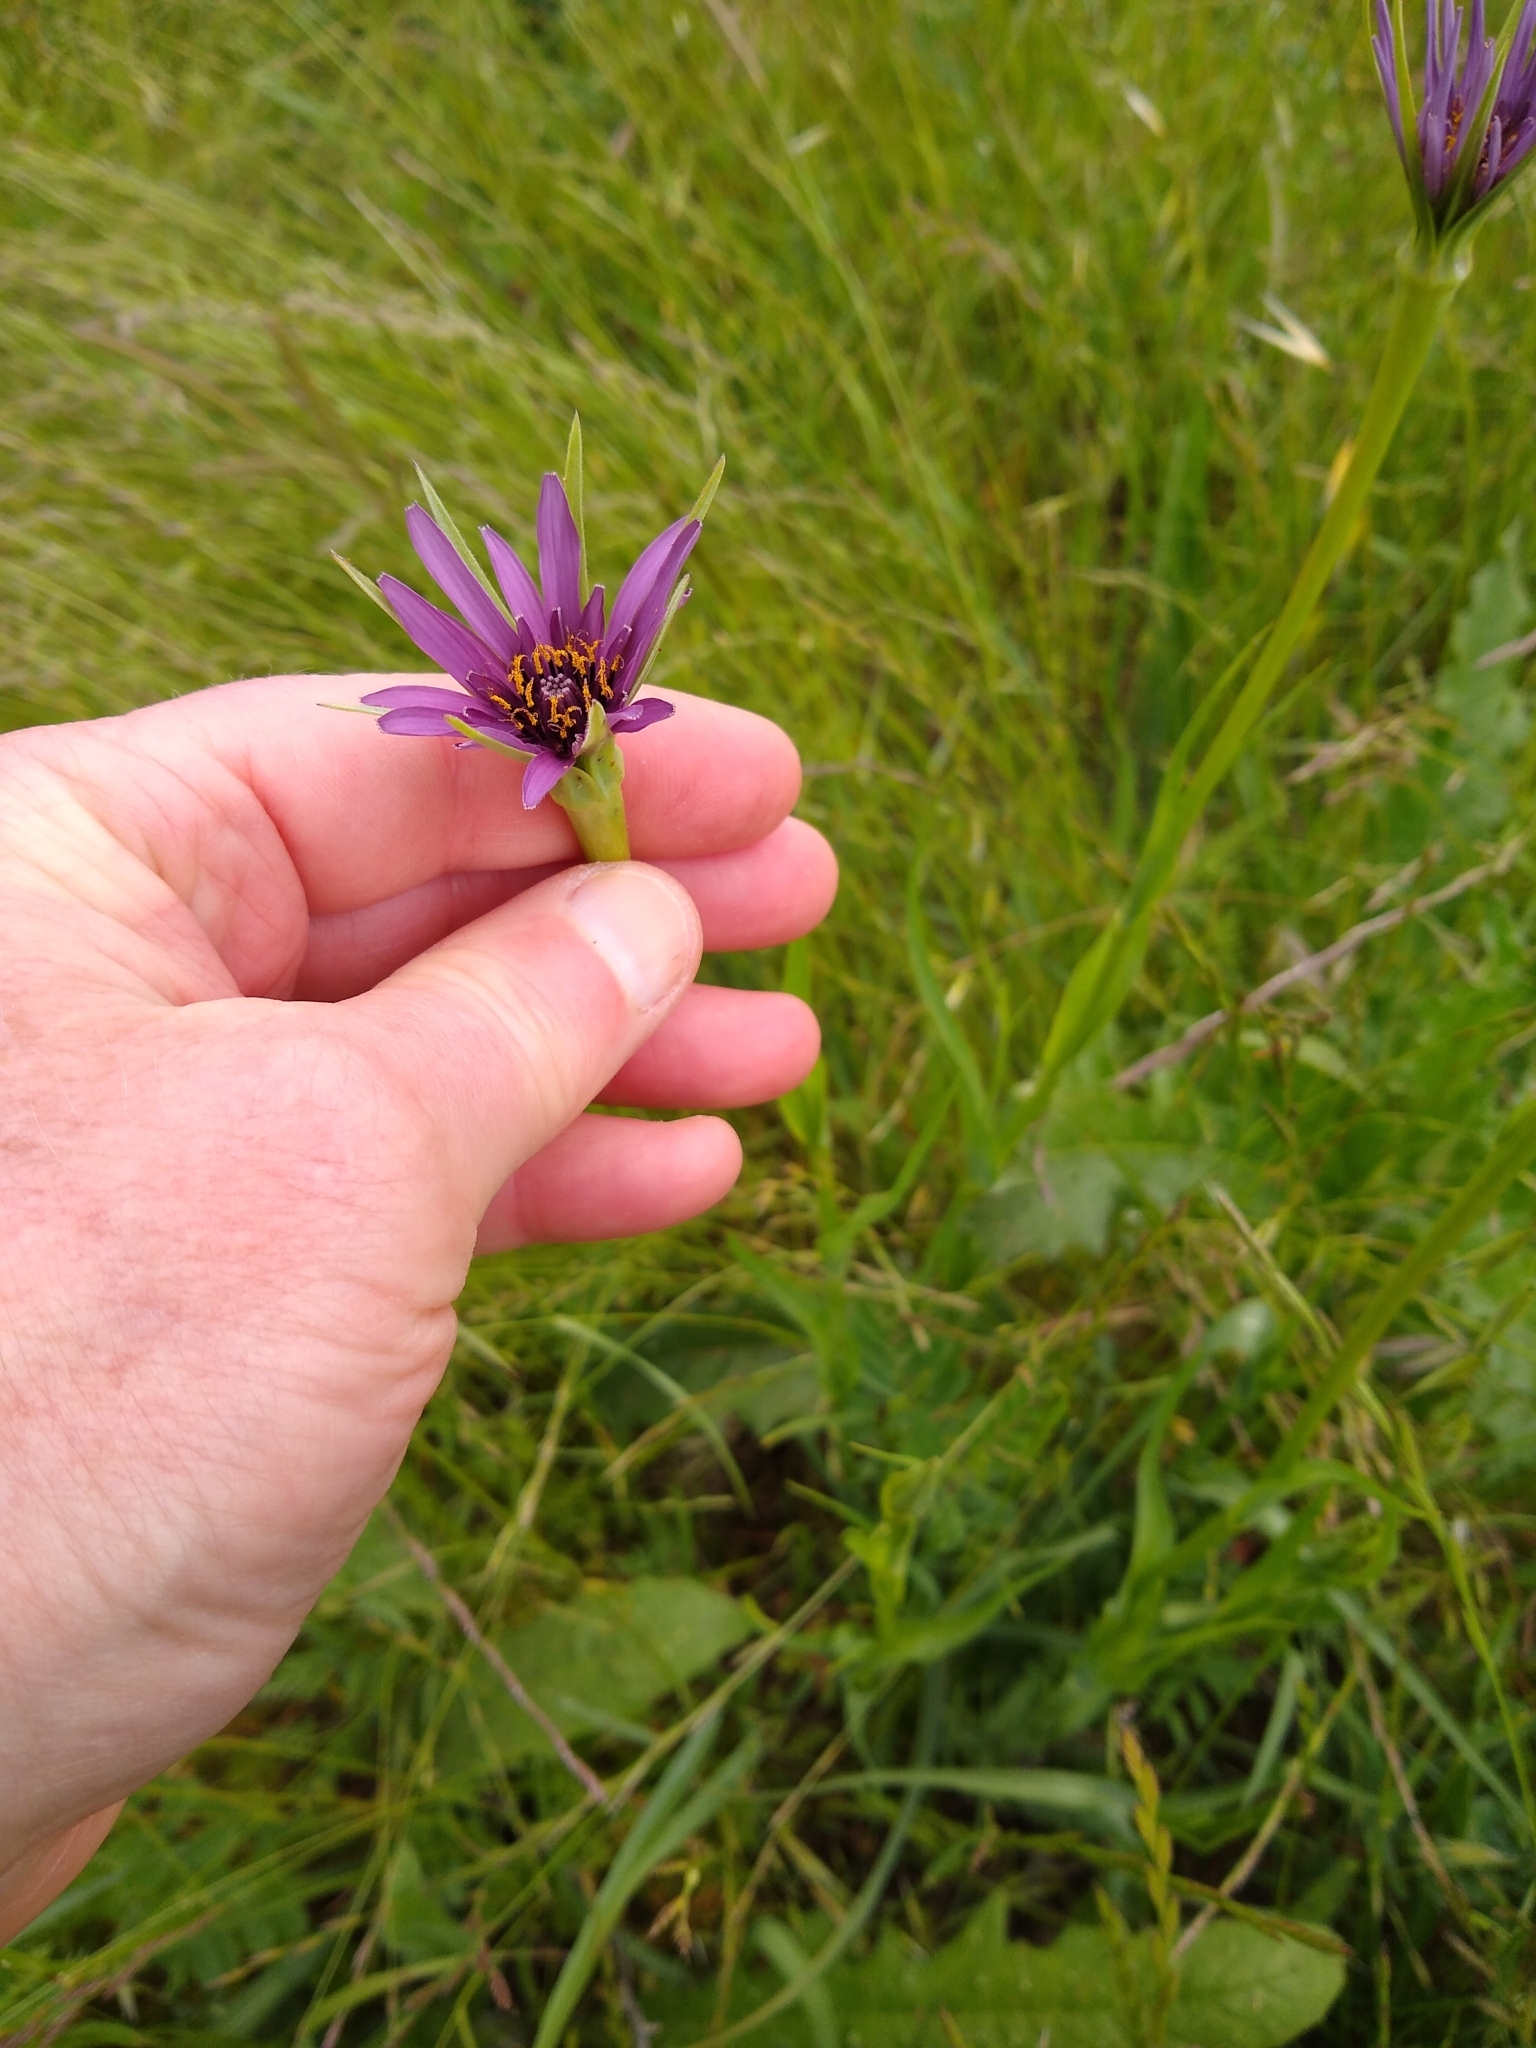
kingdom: Plantae
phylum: Tracheophyta
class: Magnoliopsida
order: Asterales
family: Asteraceae
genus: Tragopogon
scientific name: Tragopogon porrifolius
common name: Salsify
